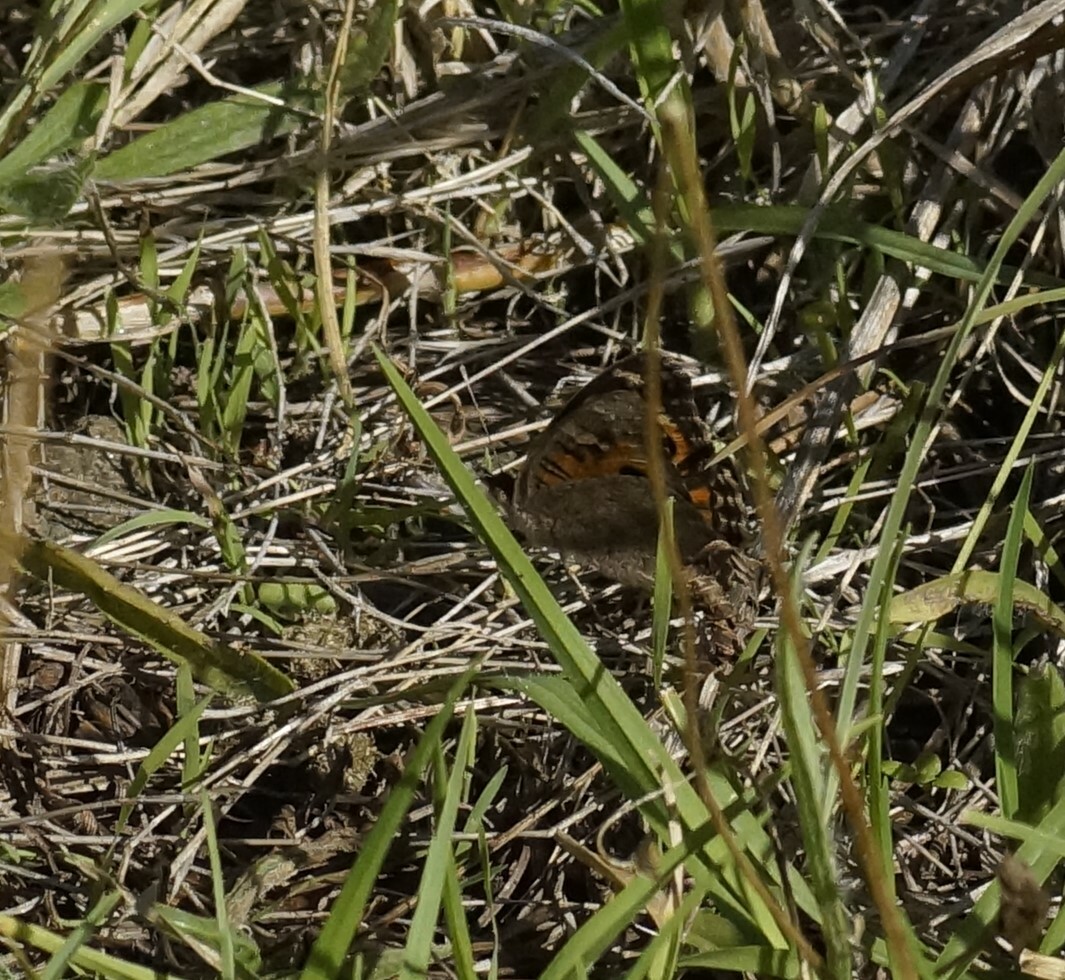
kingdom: Animalia
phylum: Arthropoda
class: Insecta
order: Lepidoptera
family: Nymphalidae
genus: Junonia
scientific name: Junonia villida
